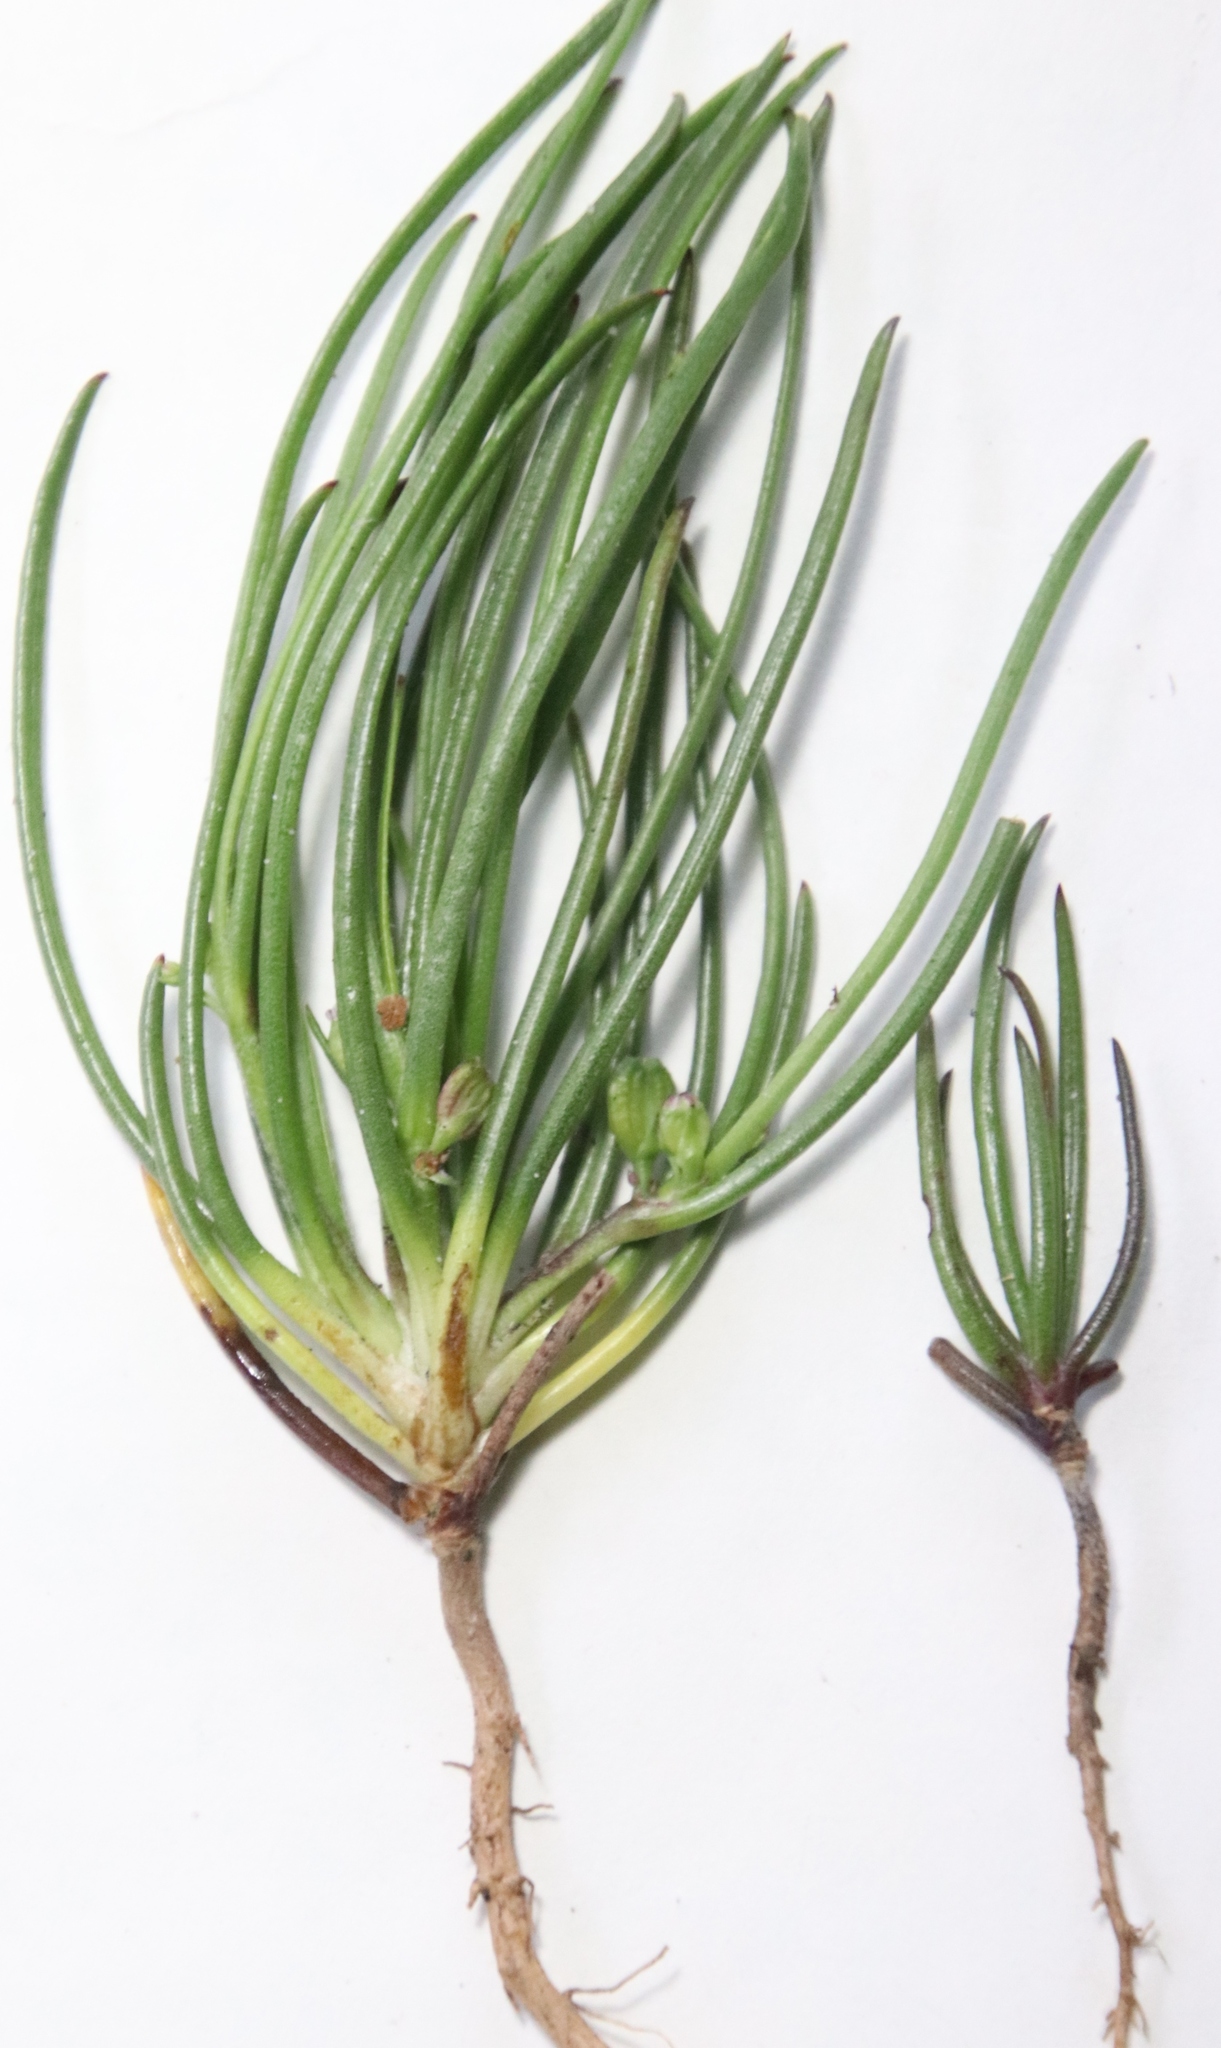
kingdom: Plantae
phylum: Tracheophyta
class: Magnoliopsida
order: Apiales
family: Apiaceae
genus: Centella
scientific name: Centella macrocarpa
